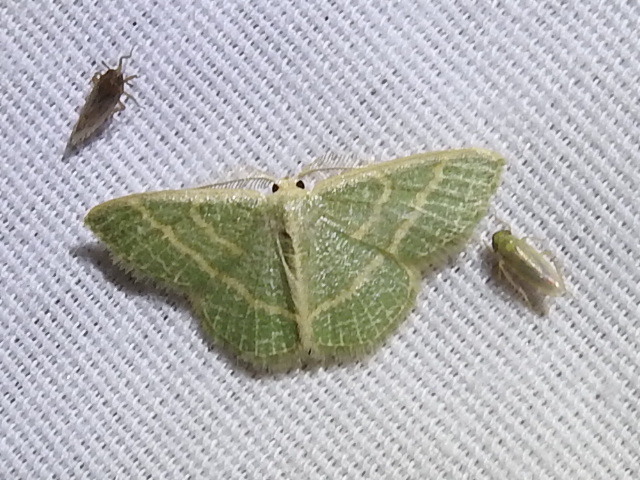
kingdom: Animalia
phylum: Arthropoda
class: Insecta
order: Lepidoptera
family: Geometridae
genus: Chlorochlamys
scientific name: Chlorochlamys chloroleucaria
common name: Blackberry looper
